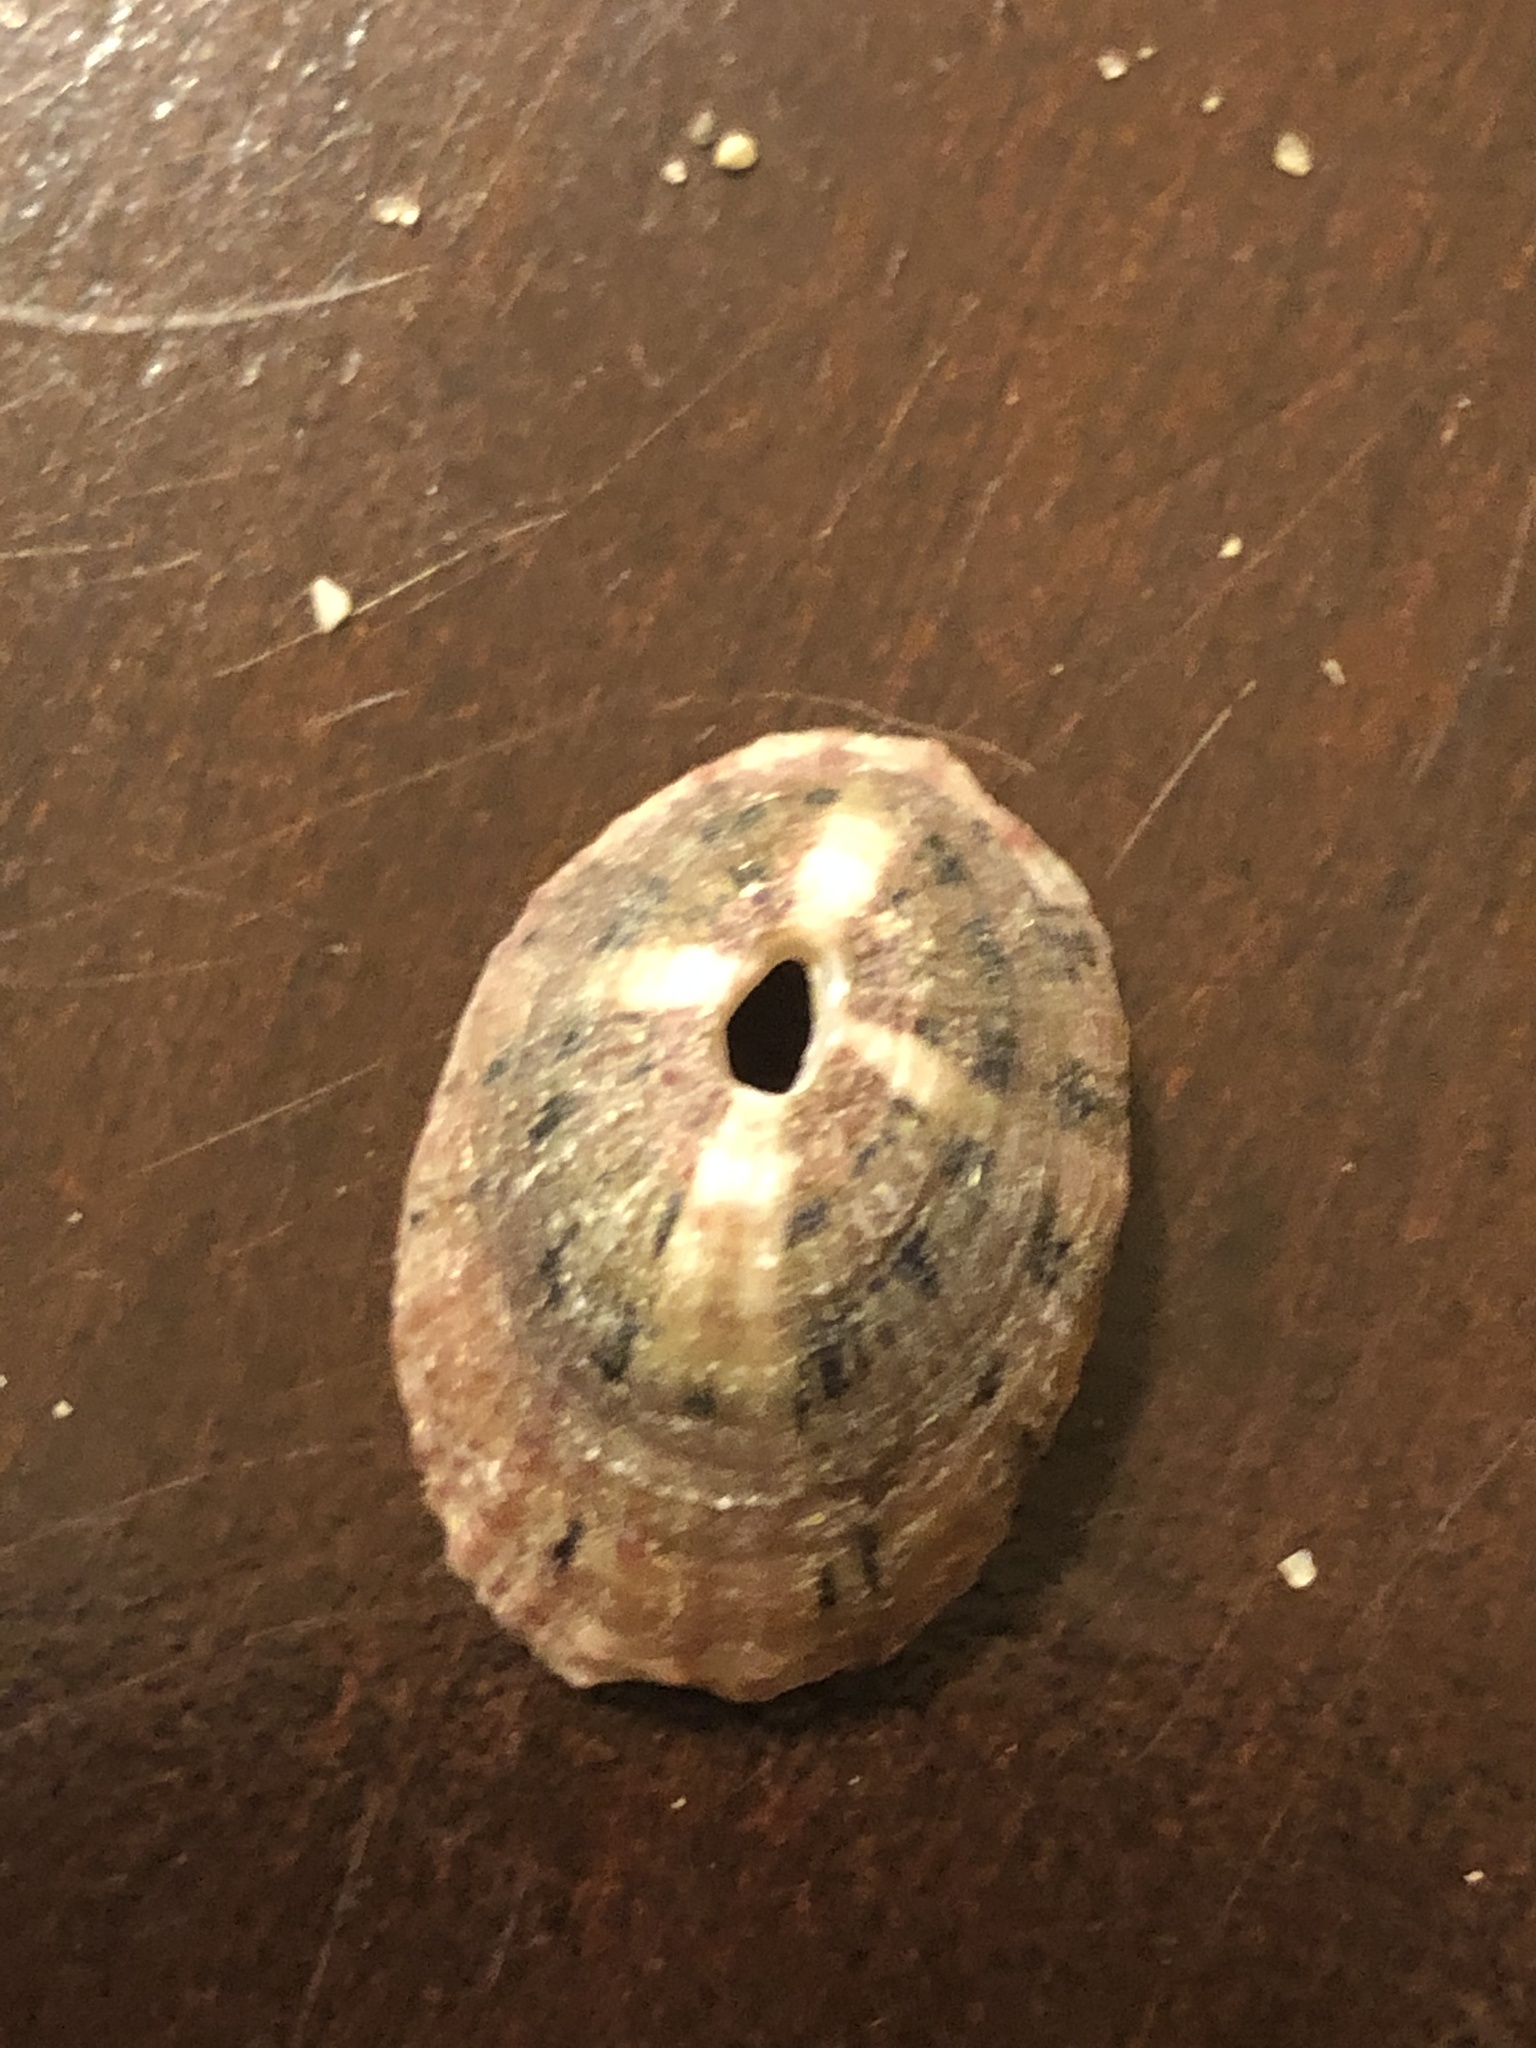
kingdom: Animalia
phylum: Mollusca
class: Gastropoda
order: Lepetellida
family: Fissurellidae
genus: Fissurella
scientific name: Fissurella volcano
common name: Volcano keyhole limpet
